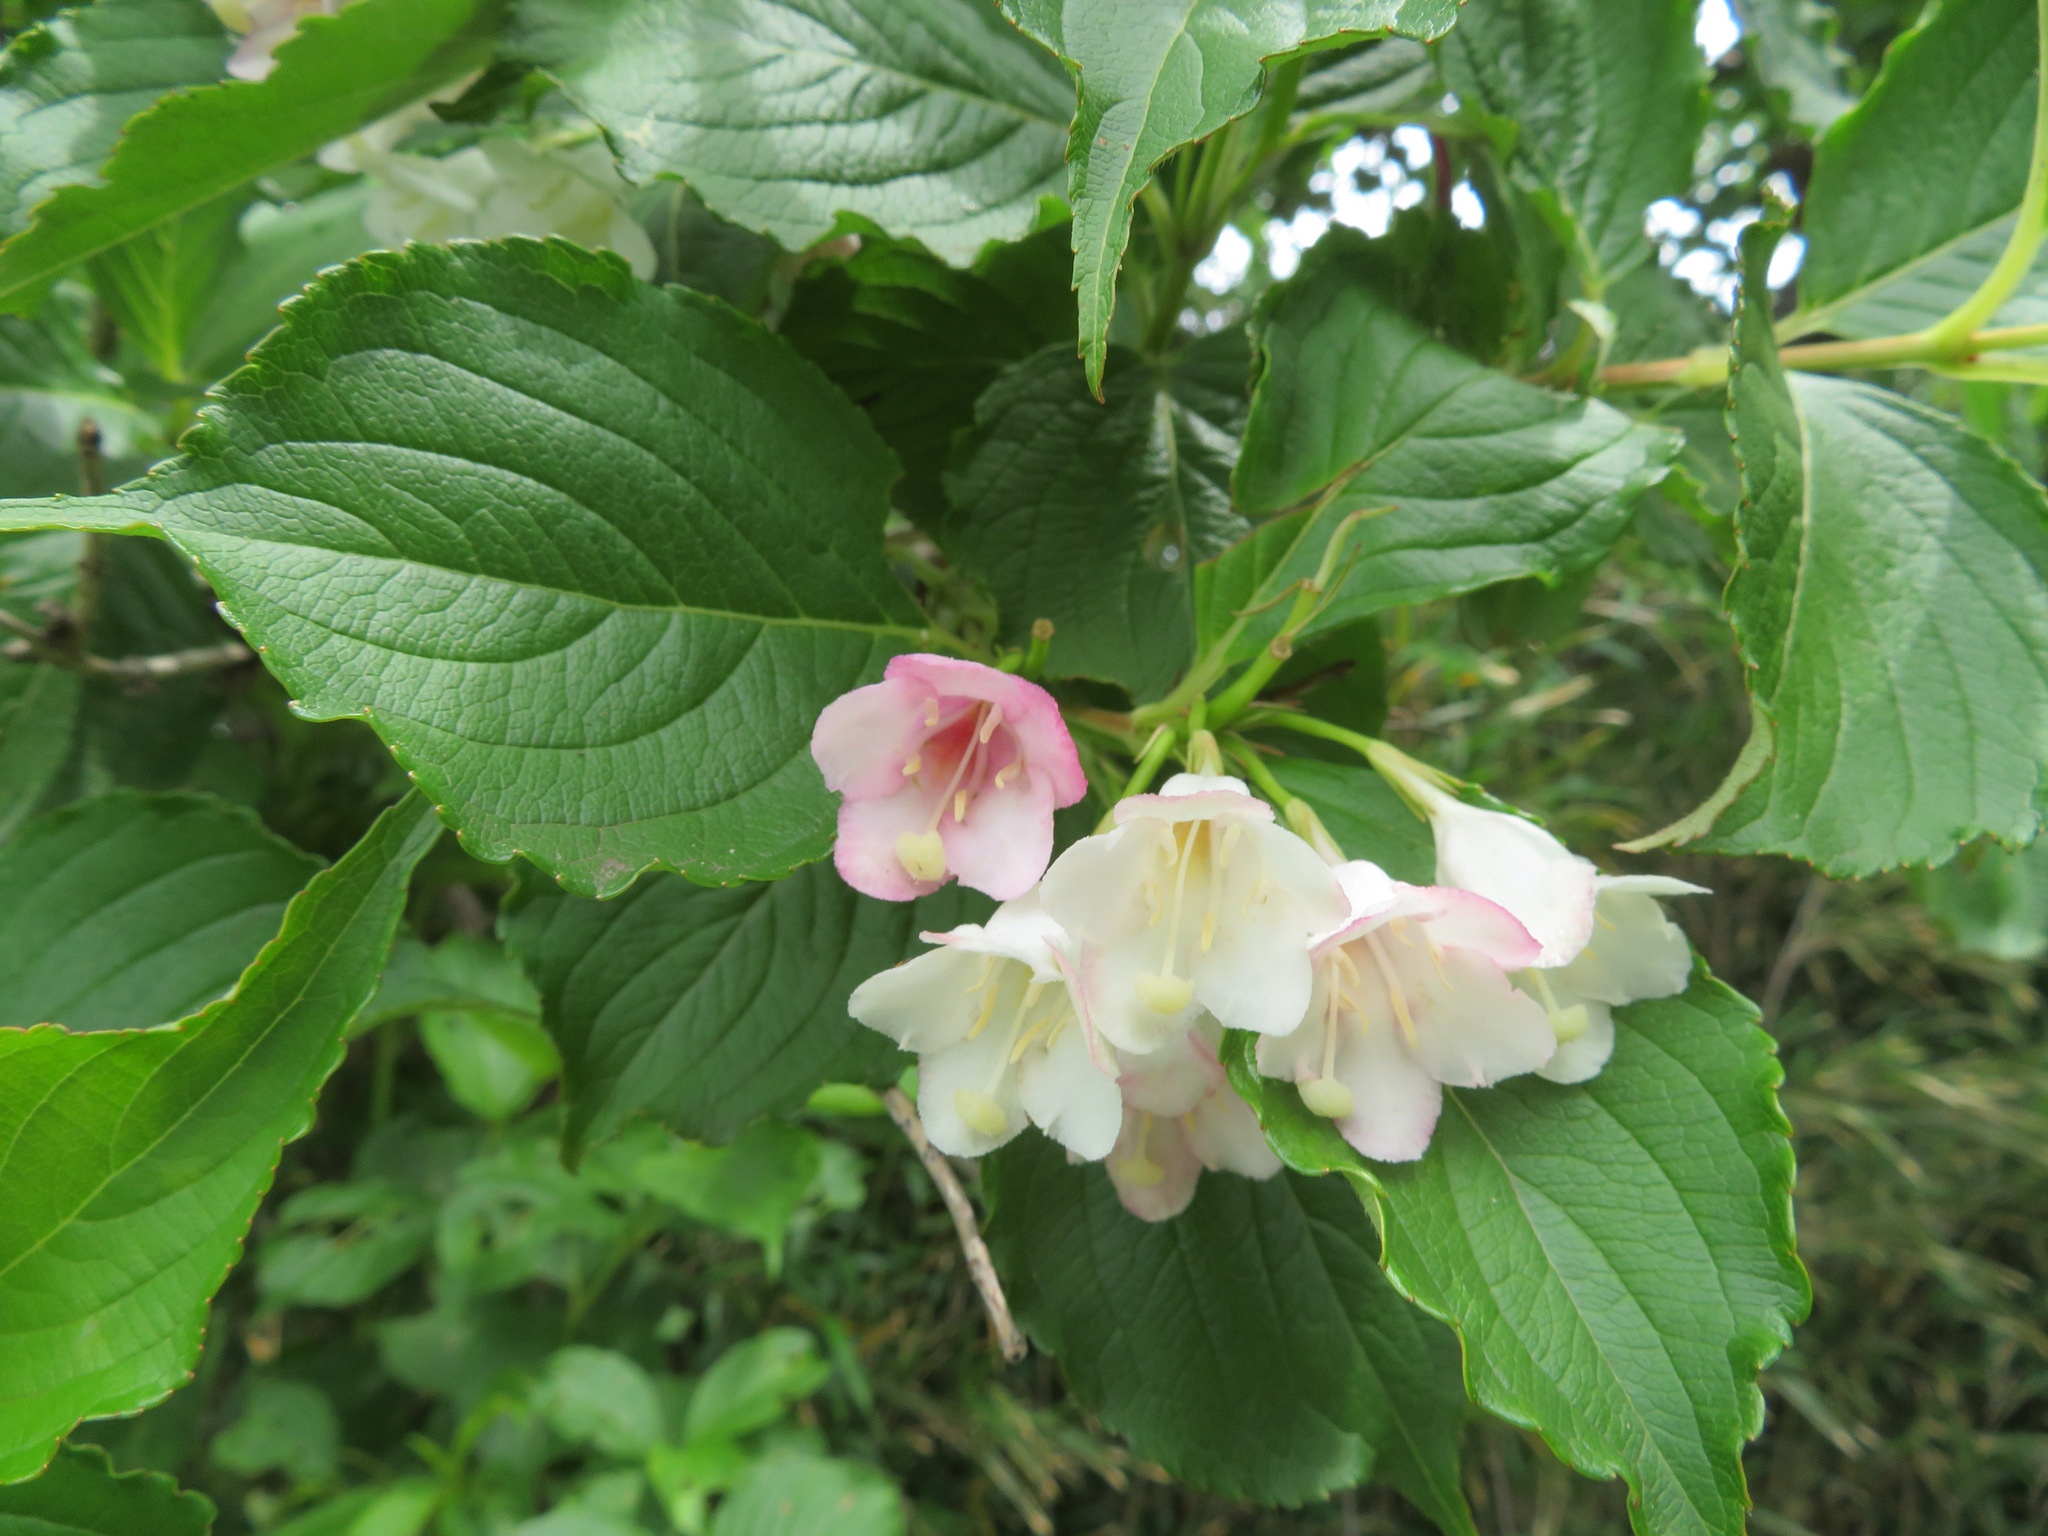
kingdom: Plantae
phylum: Tracheophyta
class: Magnoliopsida
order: Dipsacales
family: Caprifoliaceae
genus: Weigela
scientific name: Weigela coraeensis
